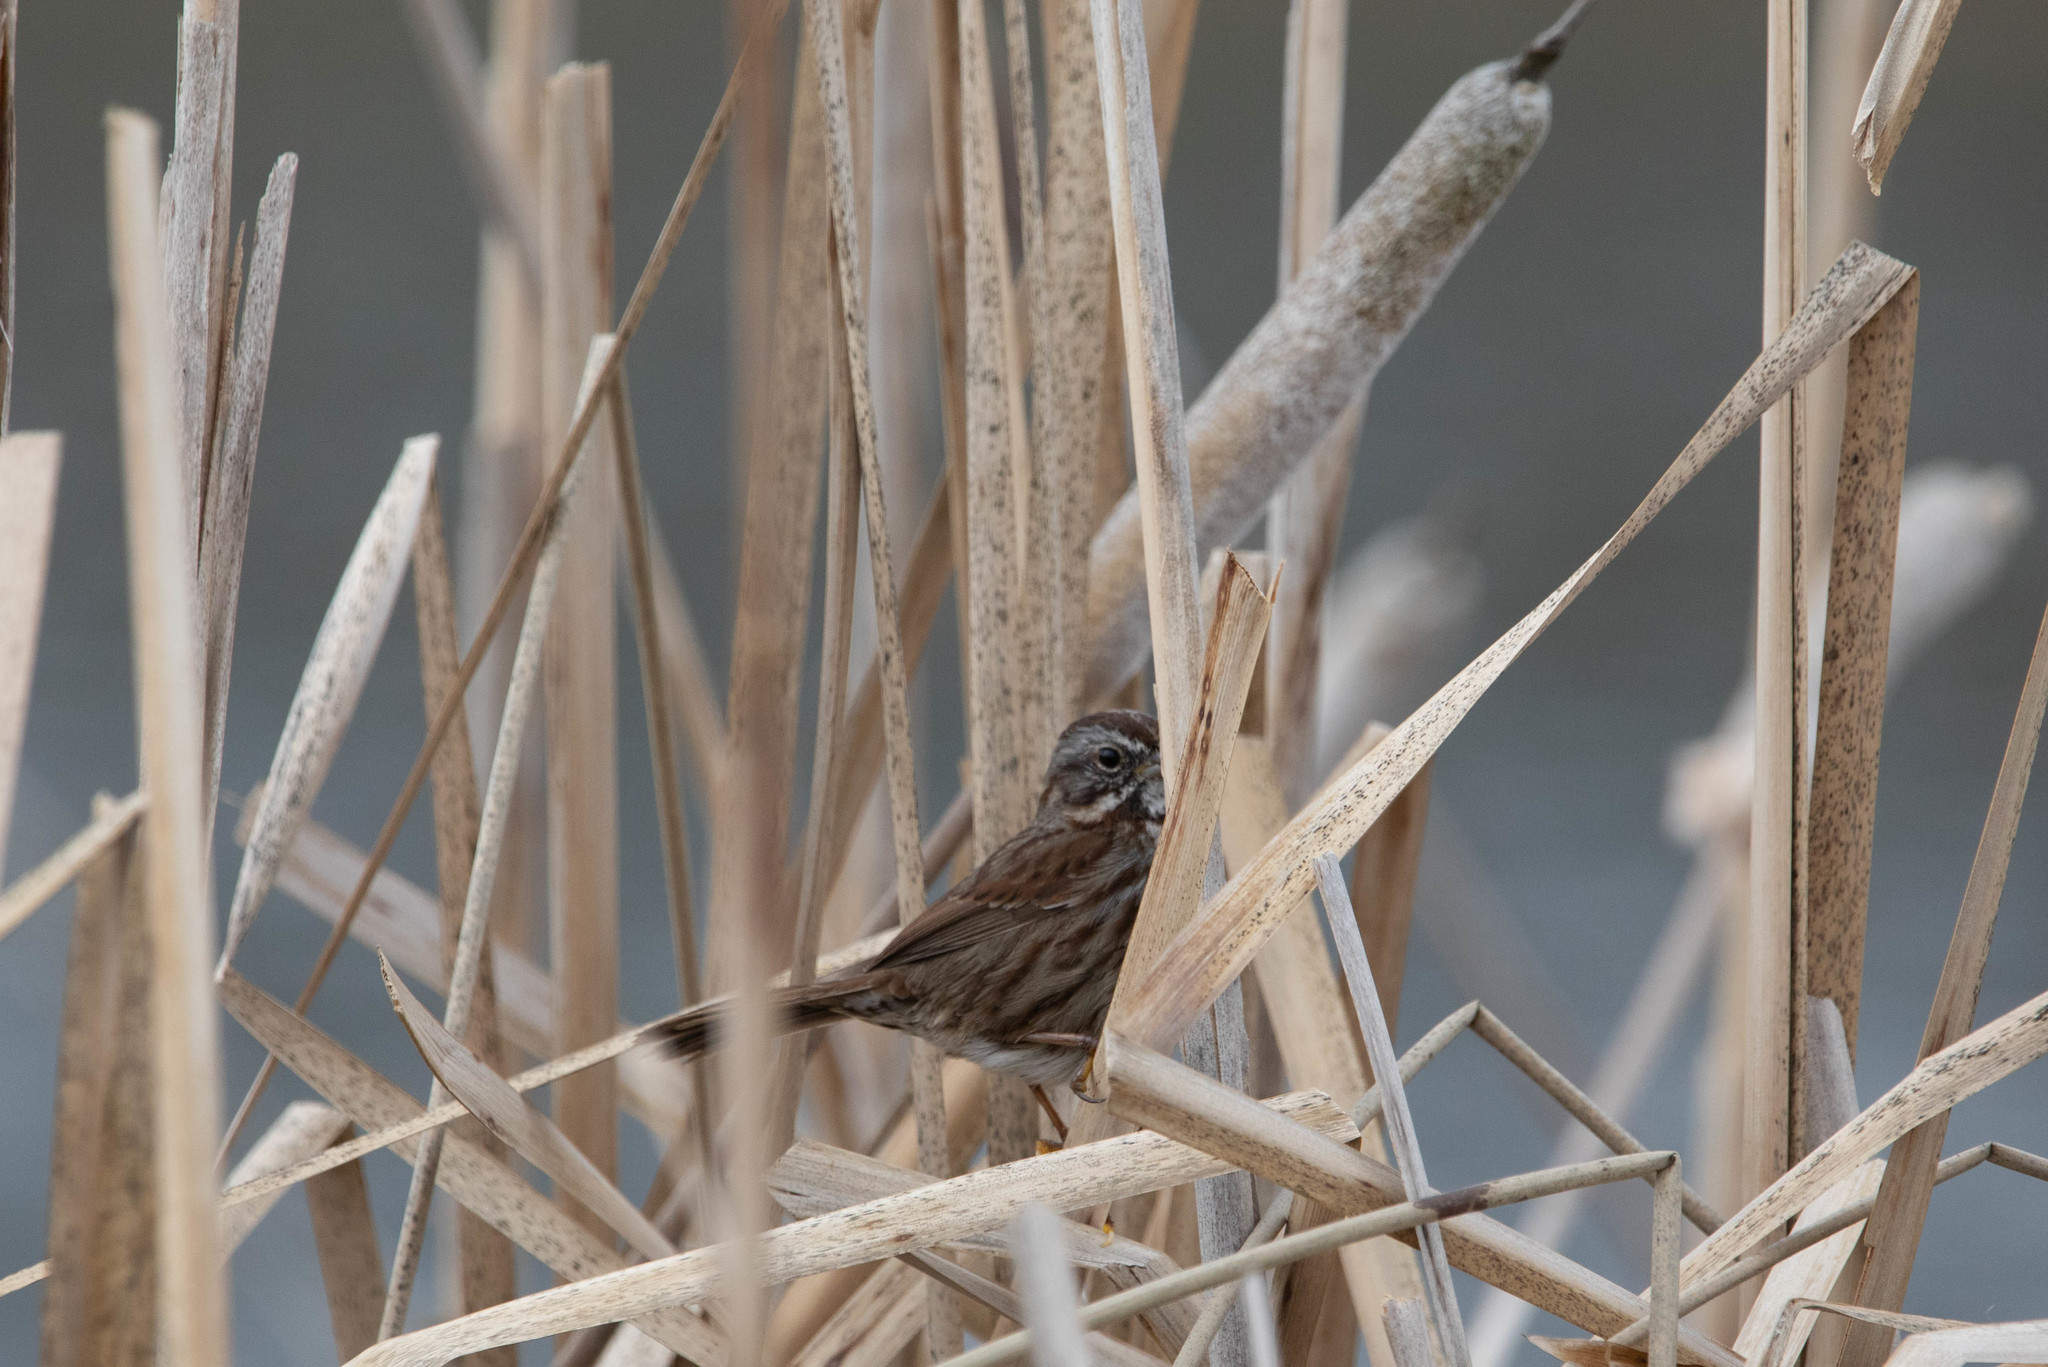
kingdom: Animalia
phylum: Chordata
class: Aves
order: Passeriformes
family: Passerellidae
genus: Melospiza
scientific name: Melospiza melodia
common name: Song sparrow
